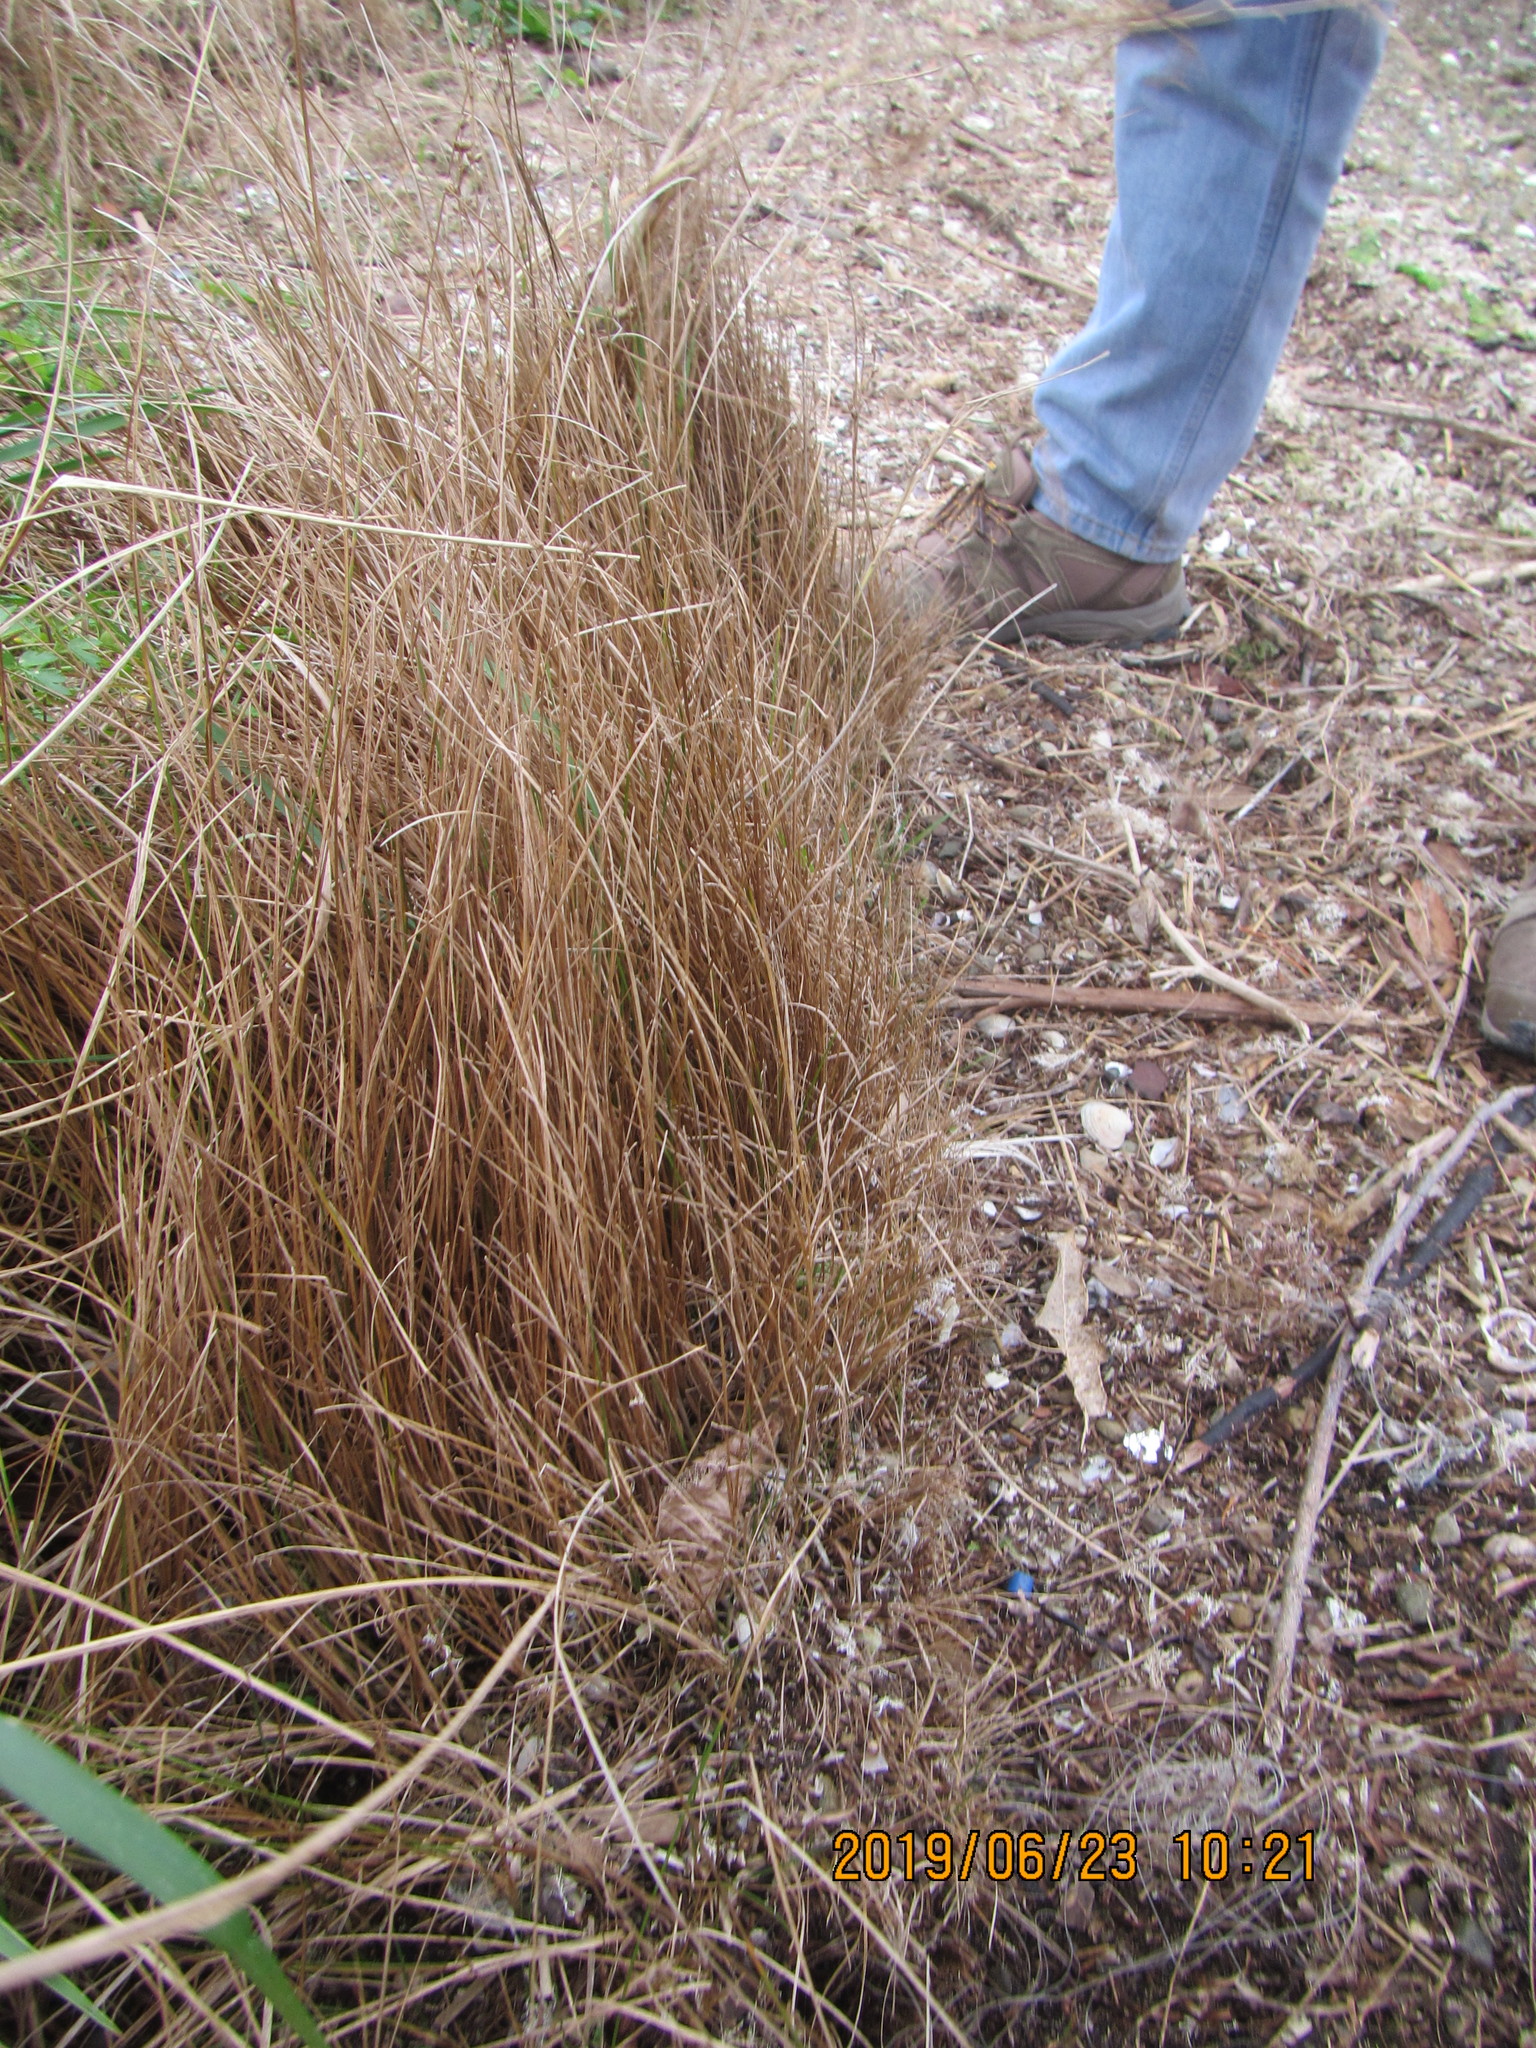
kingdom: Plantae
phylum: Tracheophyta
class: Liliopsida
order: Poales
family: Poaceae
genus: Poa
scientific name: Poa billardierei
